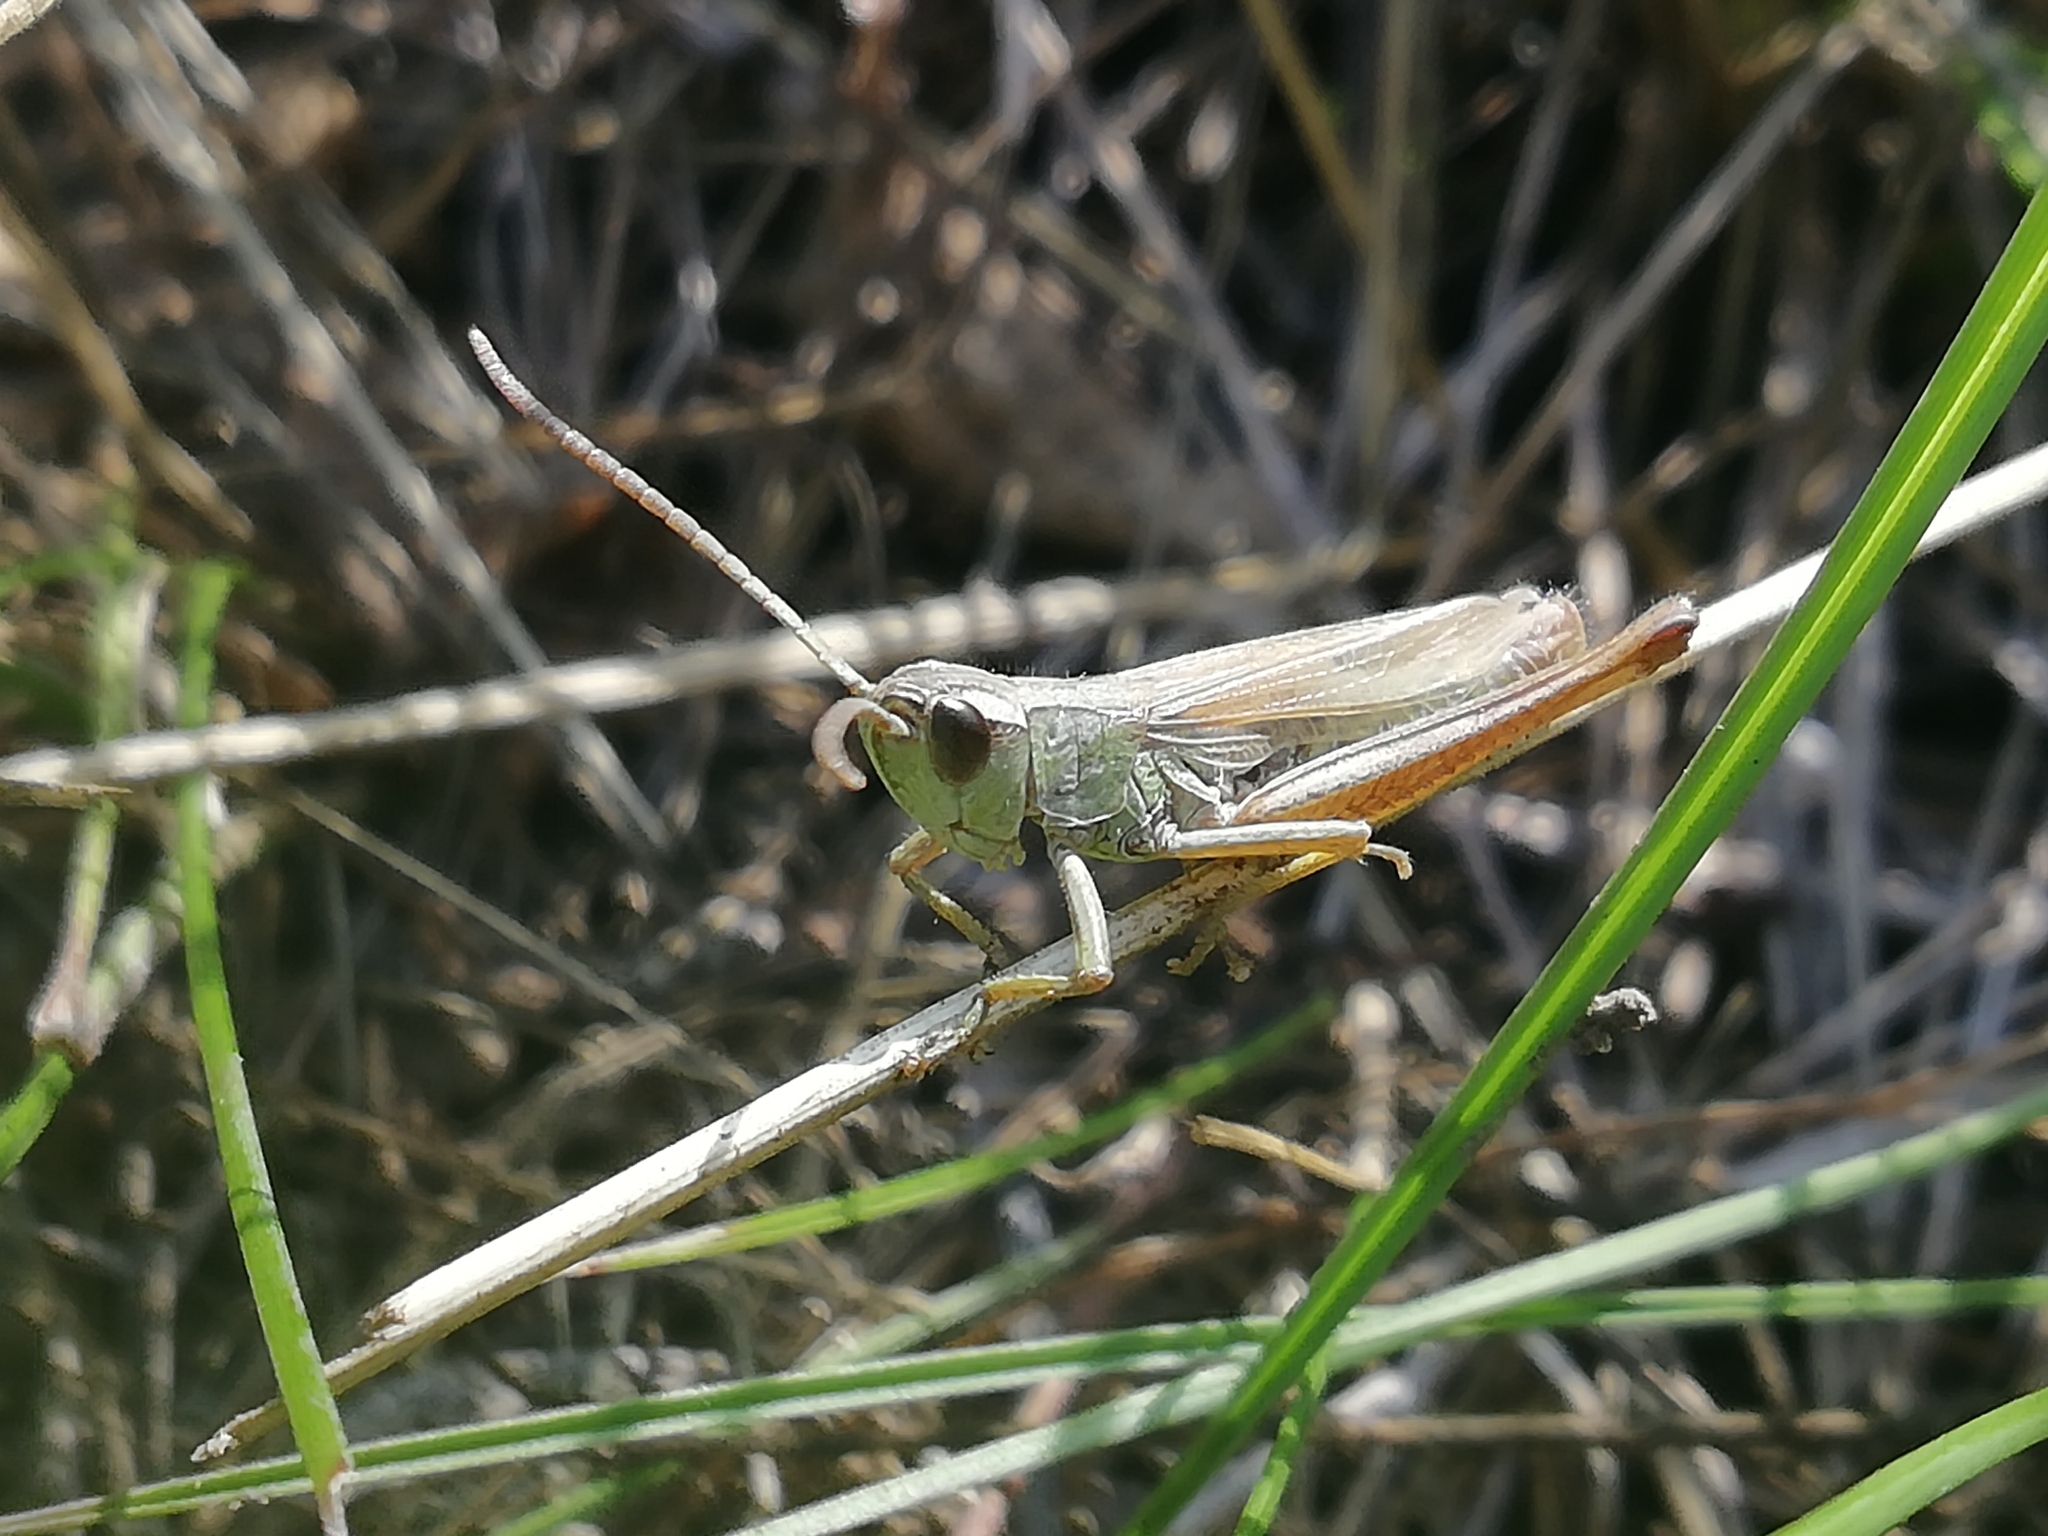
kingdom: Animalia
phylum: Arthropoda
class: Insecta
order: Orthoptera
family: Acrididae
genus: Pseudochorthippus
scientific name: Pseudochorthippus parallelus
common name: Meadow grasshopper
